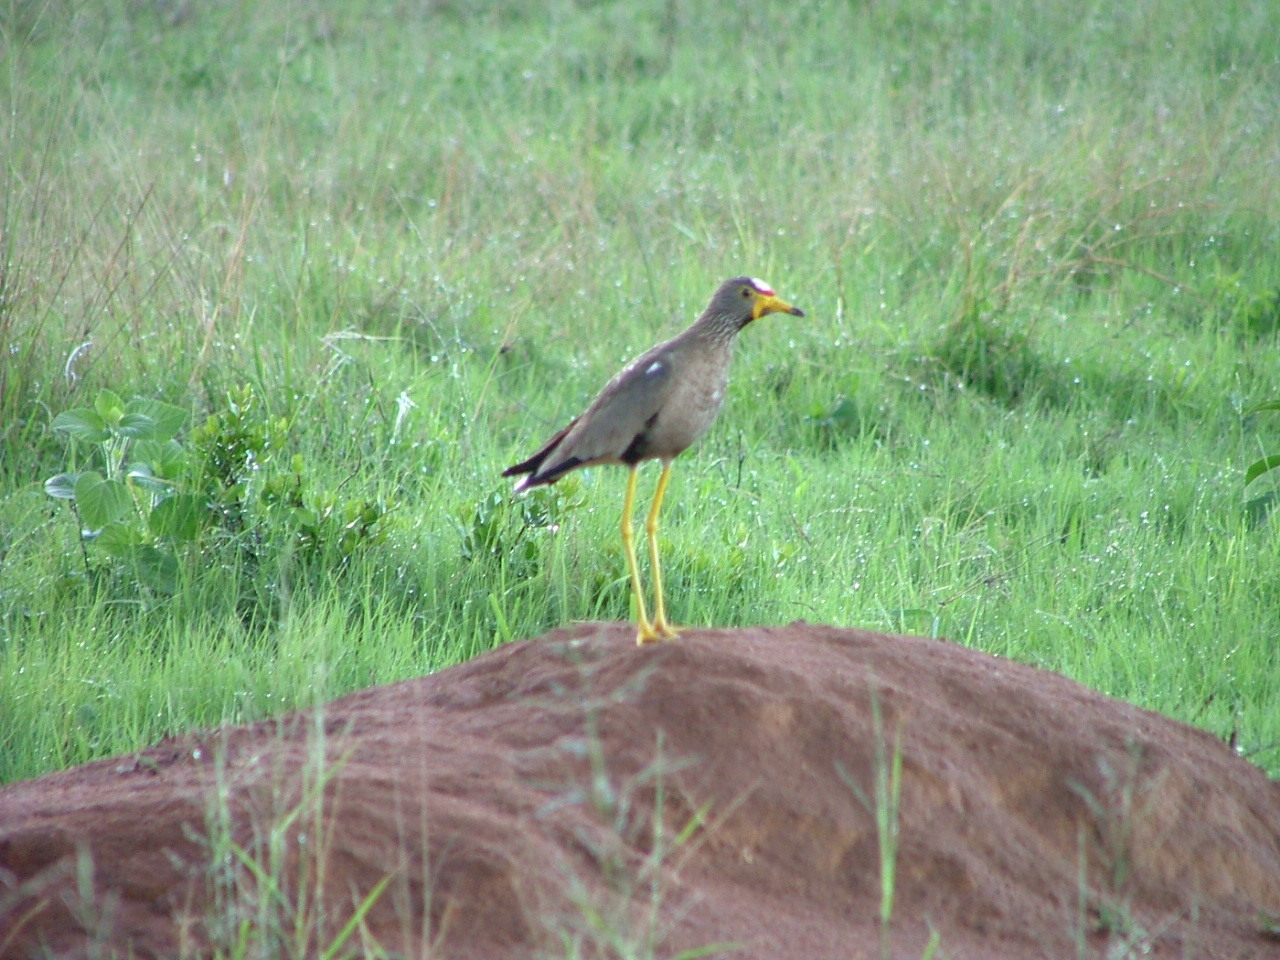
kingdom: Animalia
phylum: Chordata
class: Aves
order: Charadriiformes
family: Charadriidae
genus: Vanellus
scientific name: Vanellus senegallus
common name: African wattled lapwing
